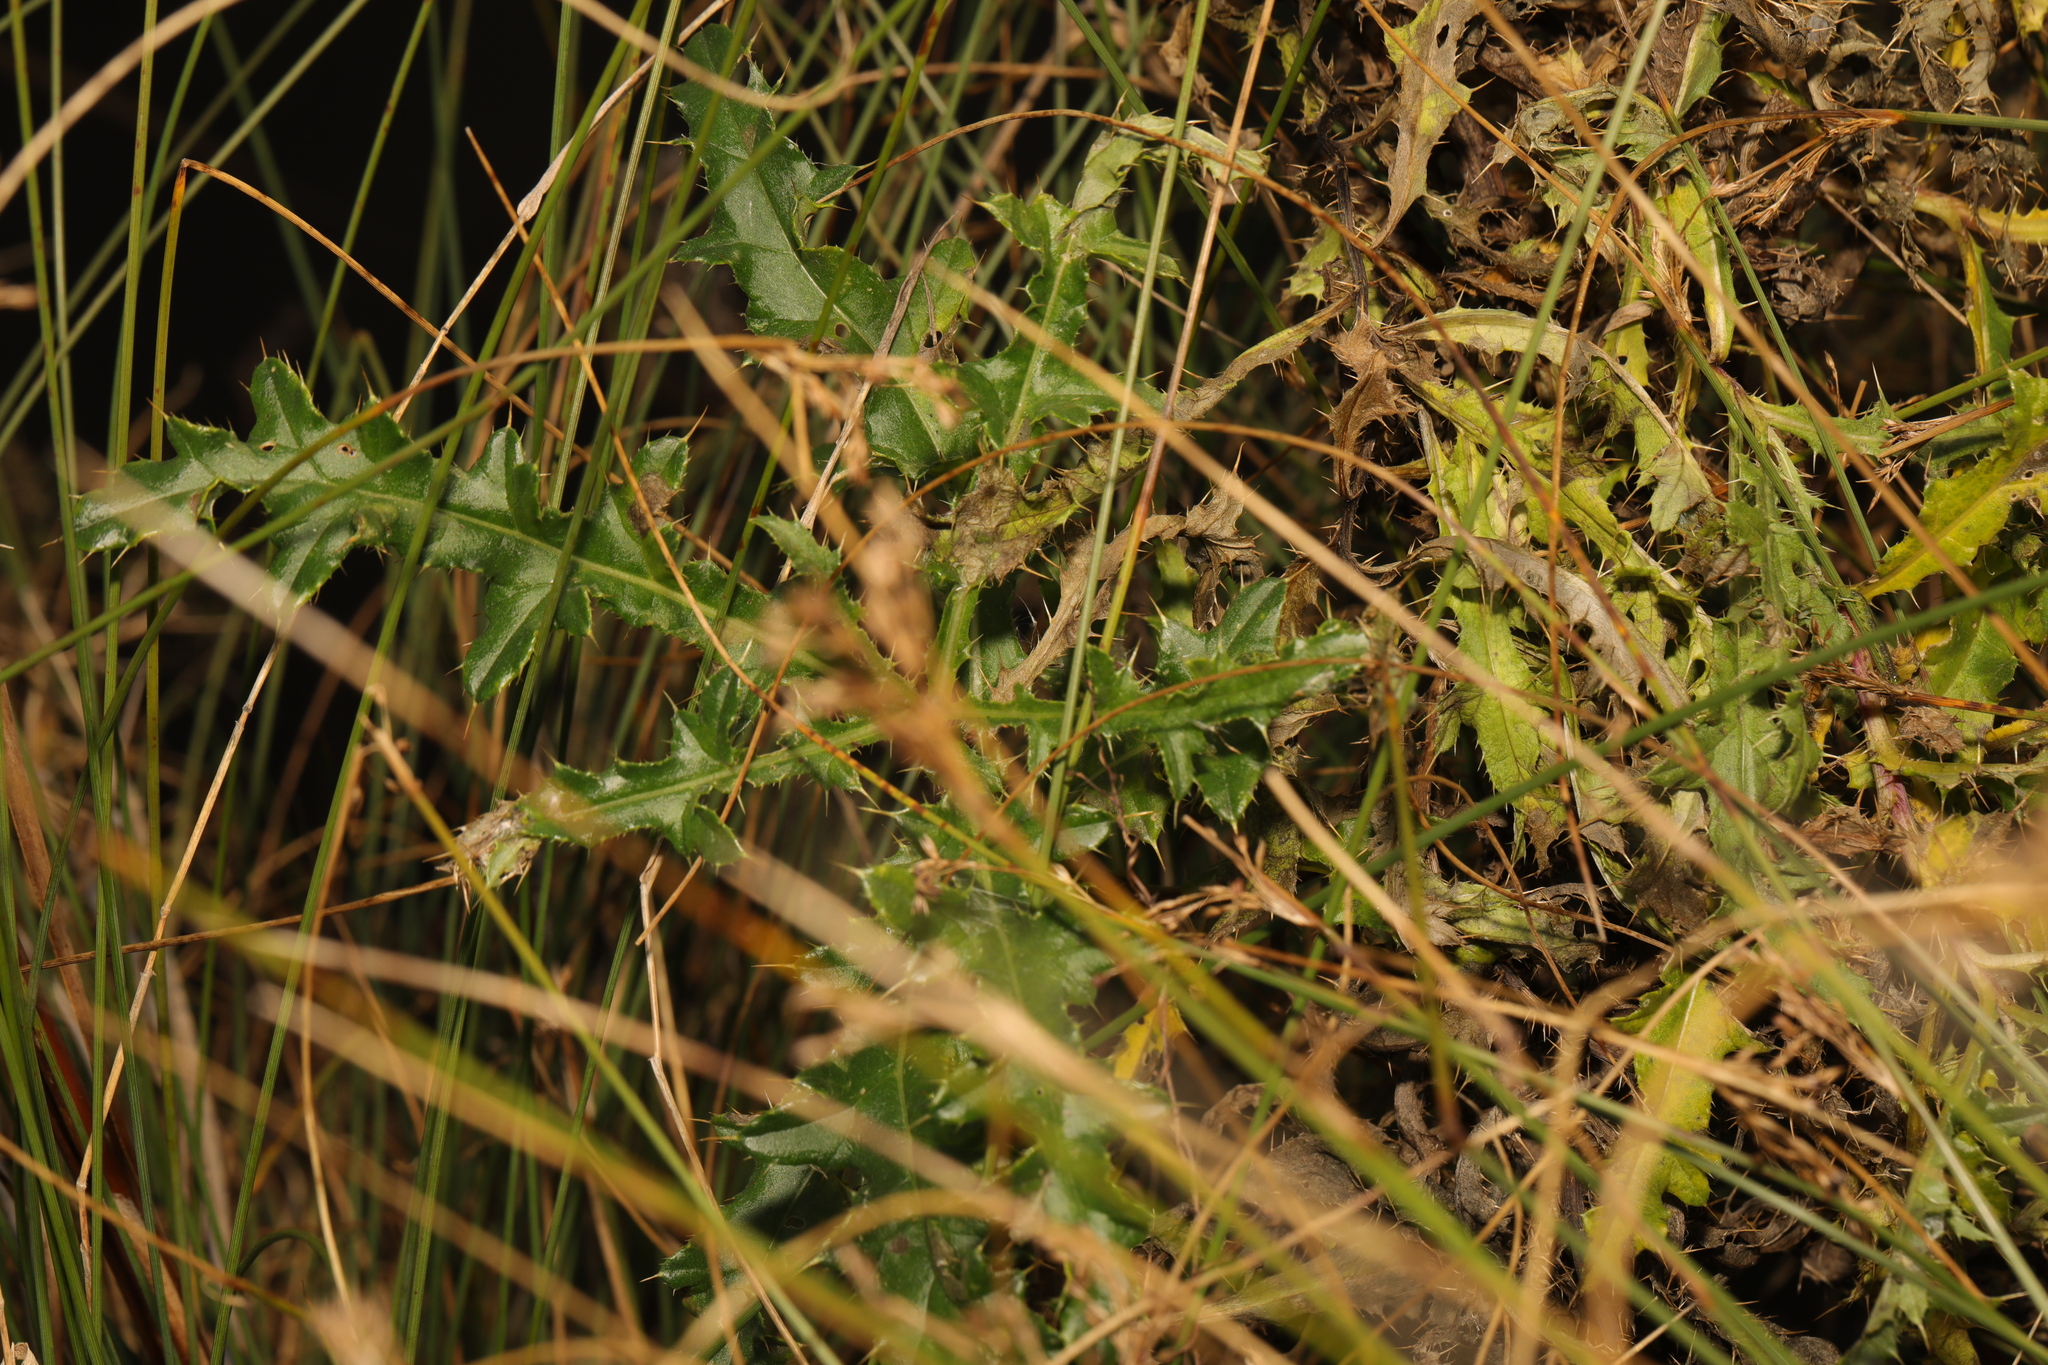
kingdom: Plantae
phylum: Tracheophyta
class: Magnoliopsida
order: Asterales
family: Asteraceae
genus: Cirsium
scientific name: Cirsium arvense
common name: Creeping thistle
